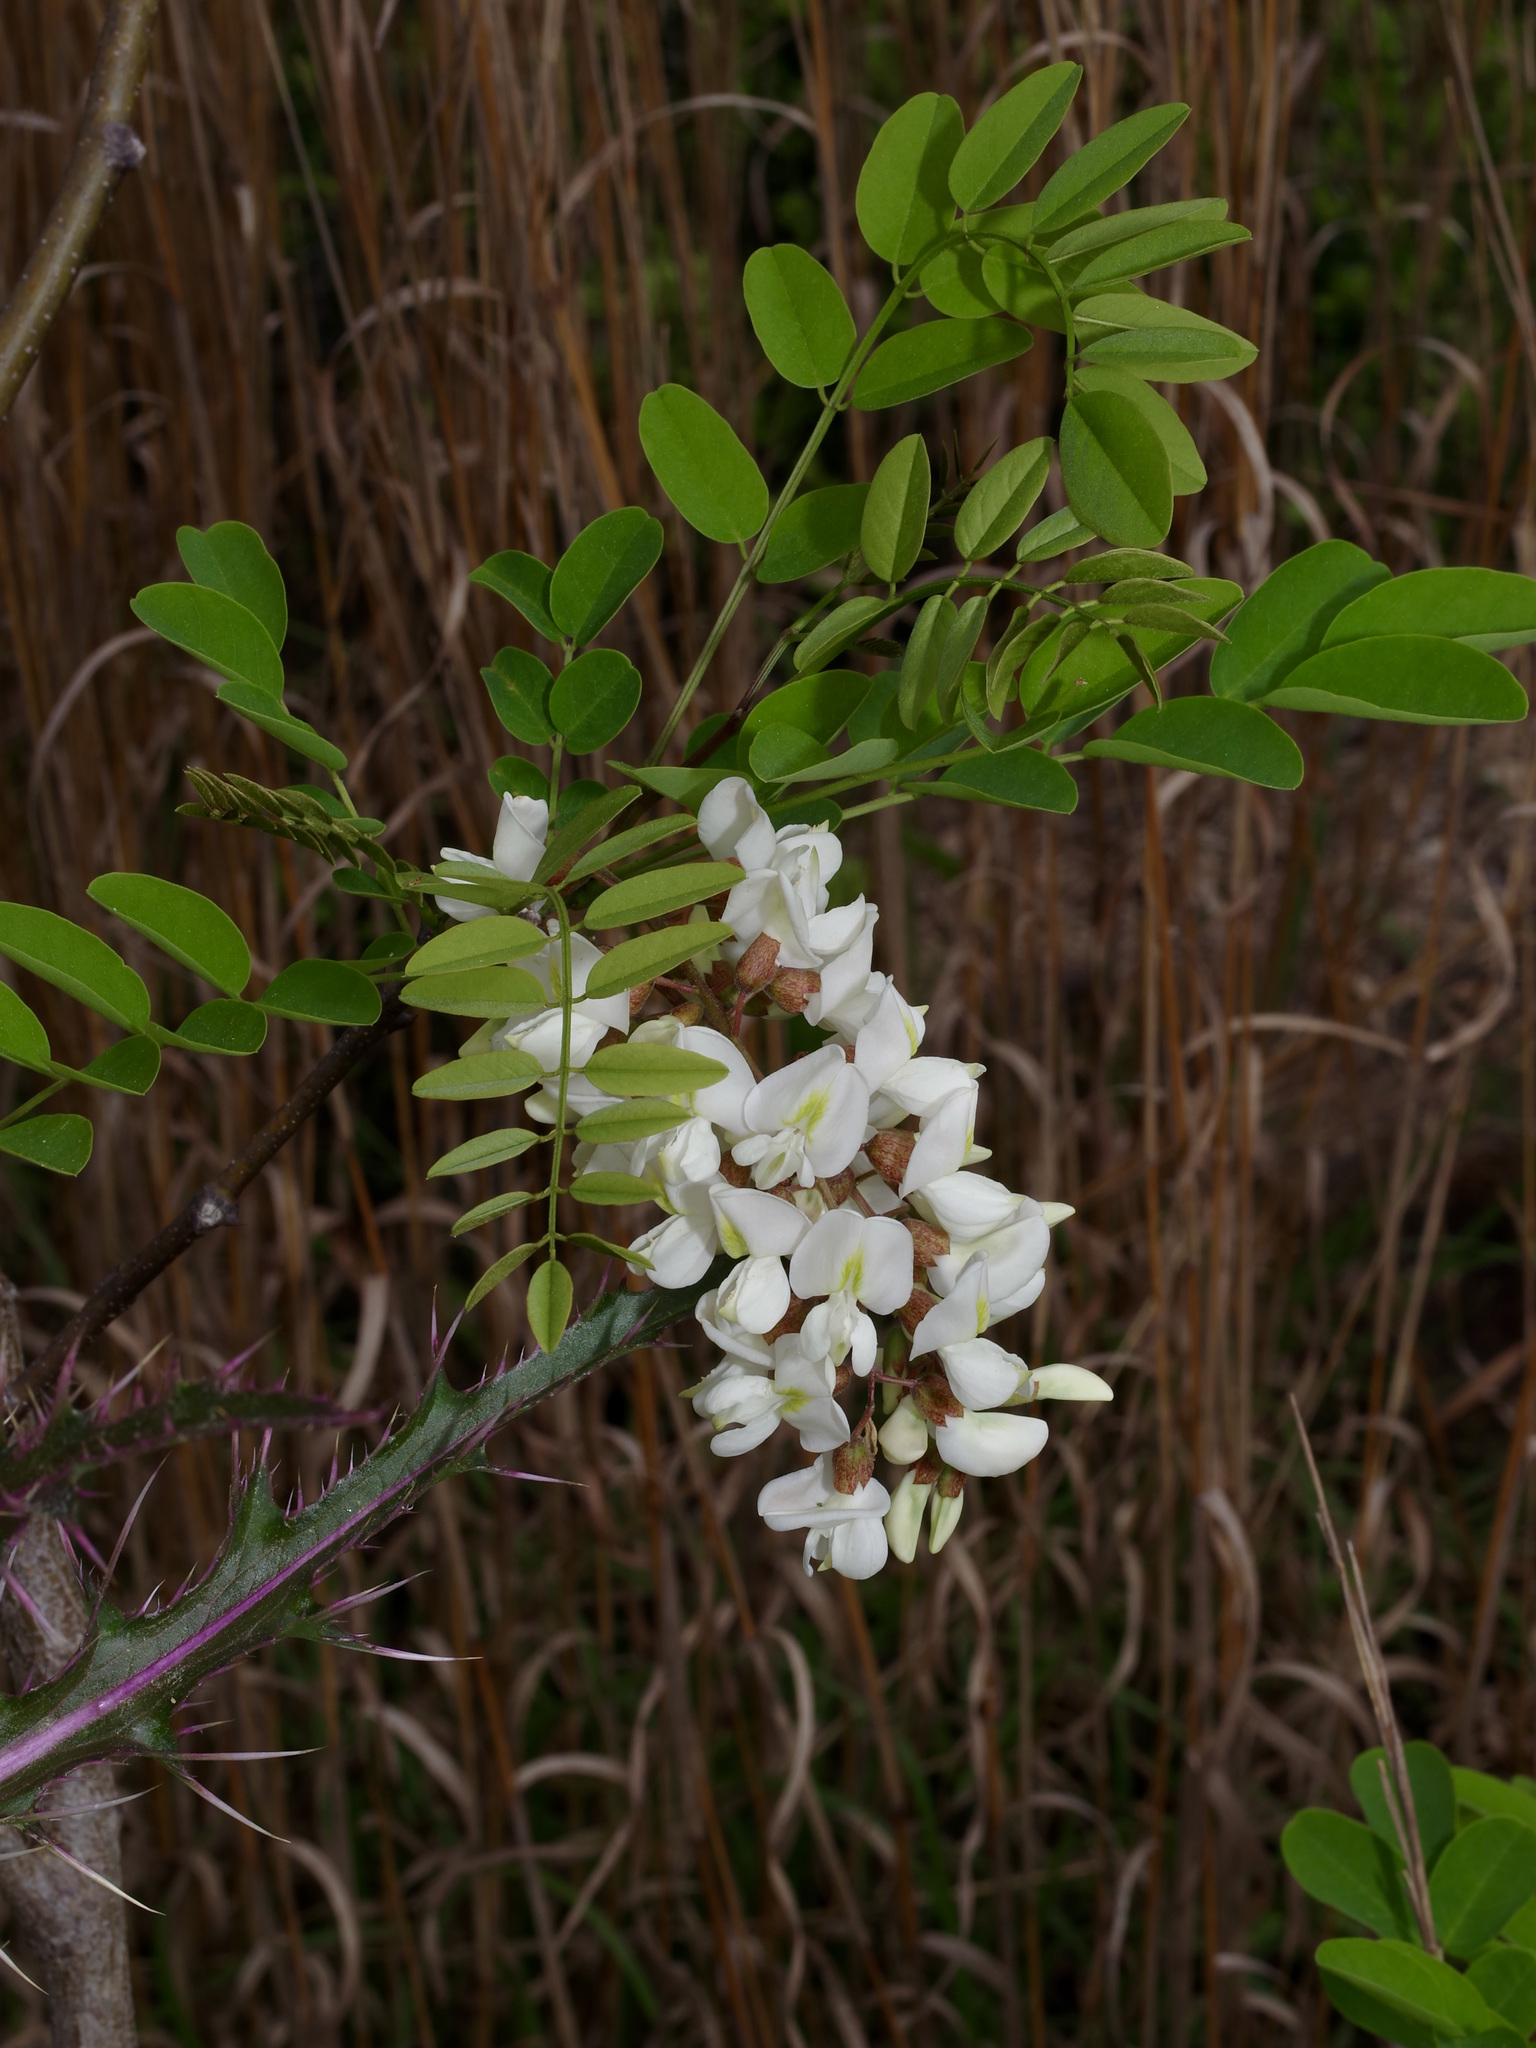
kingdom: Plantae
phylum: Tracheophyta
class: Magnoliopsida
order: Fabales
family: Fabaceae
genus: Robinia
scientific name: Robinia pseudoacacia
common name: Black locust
